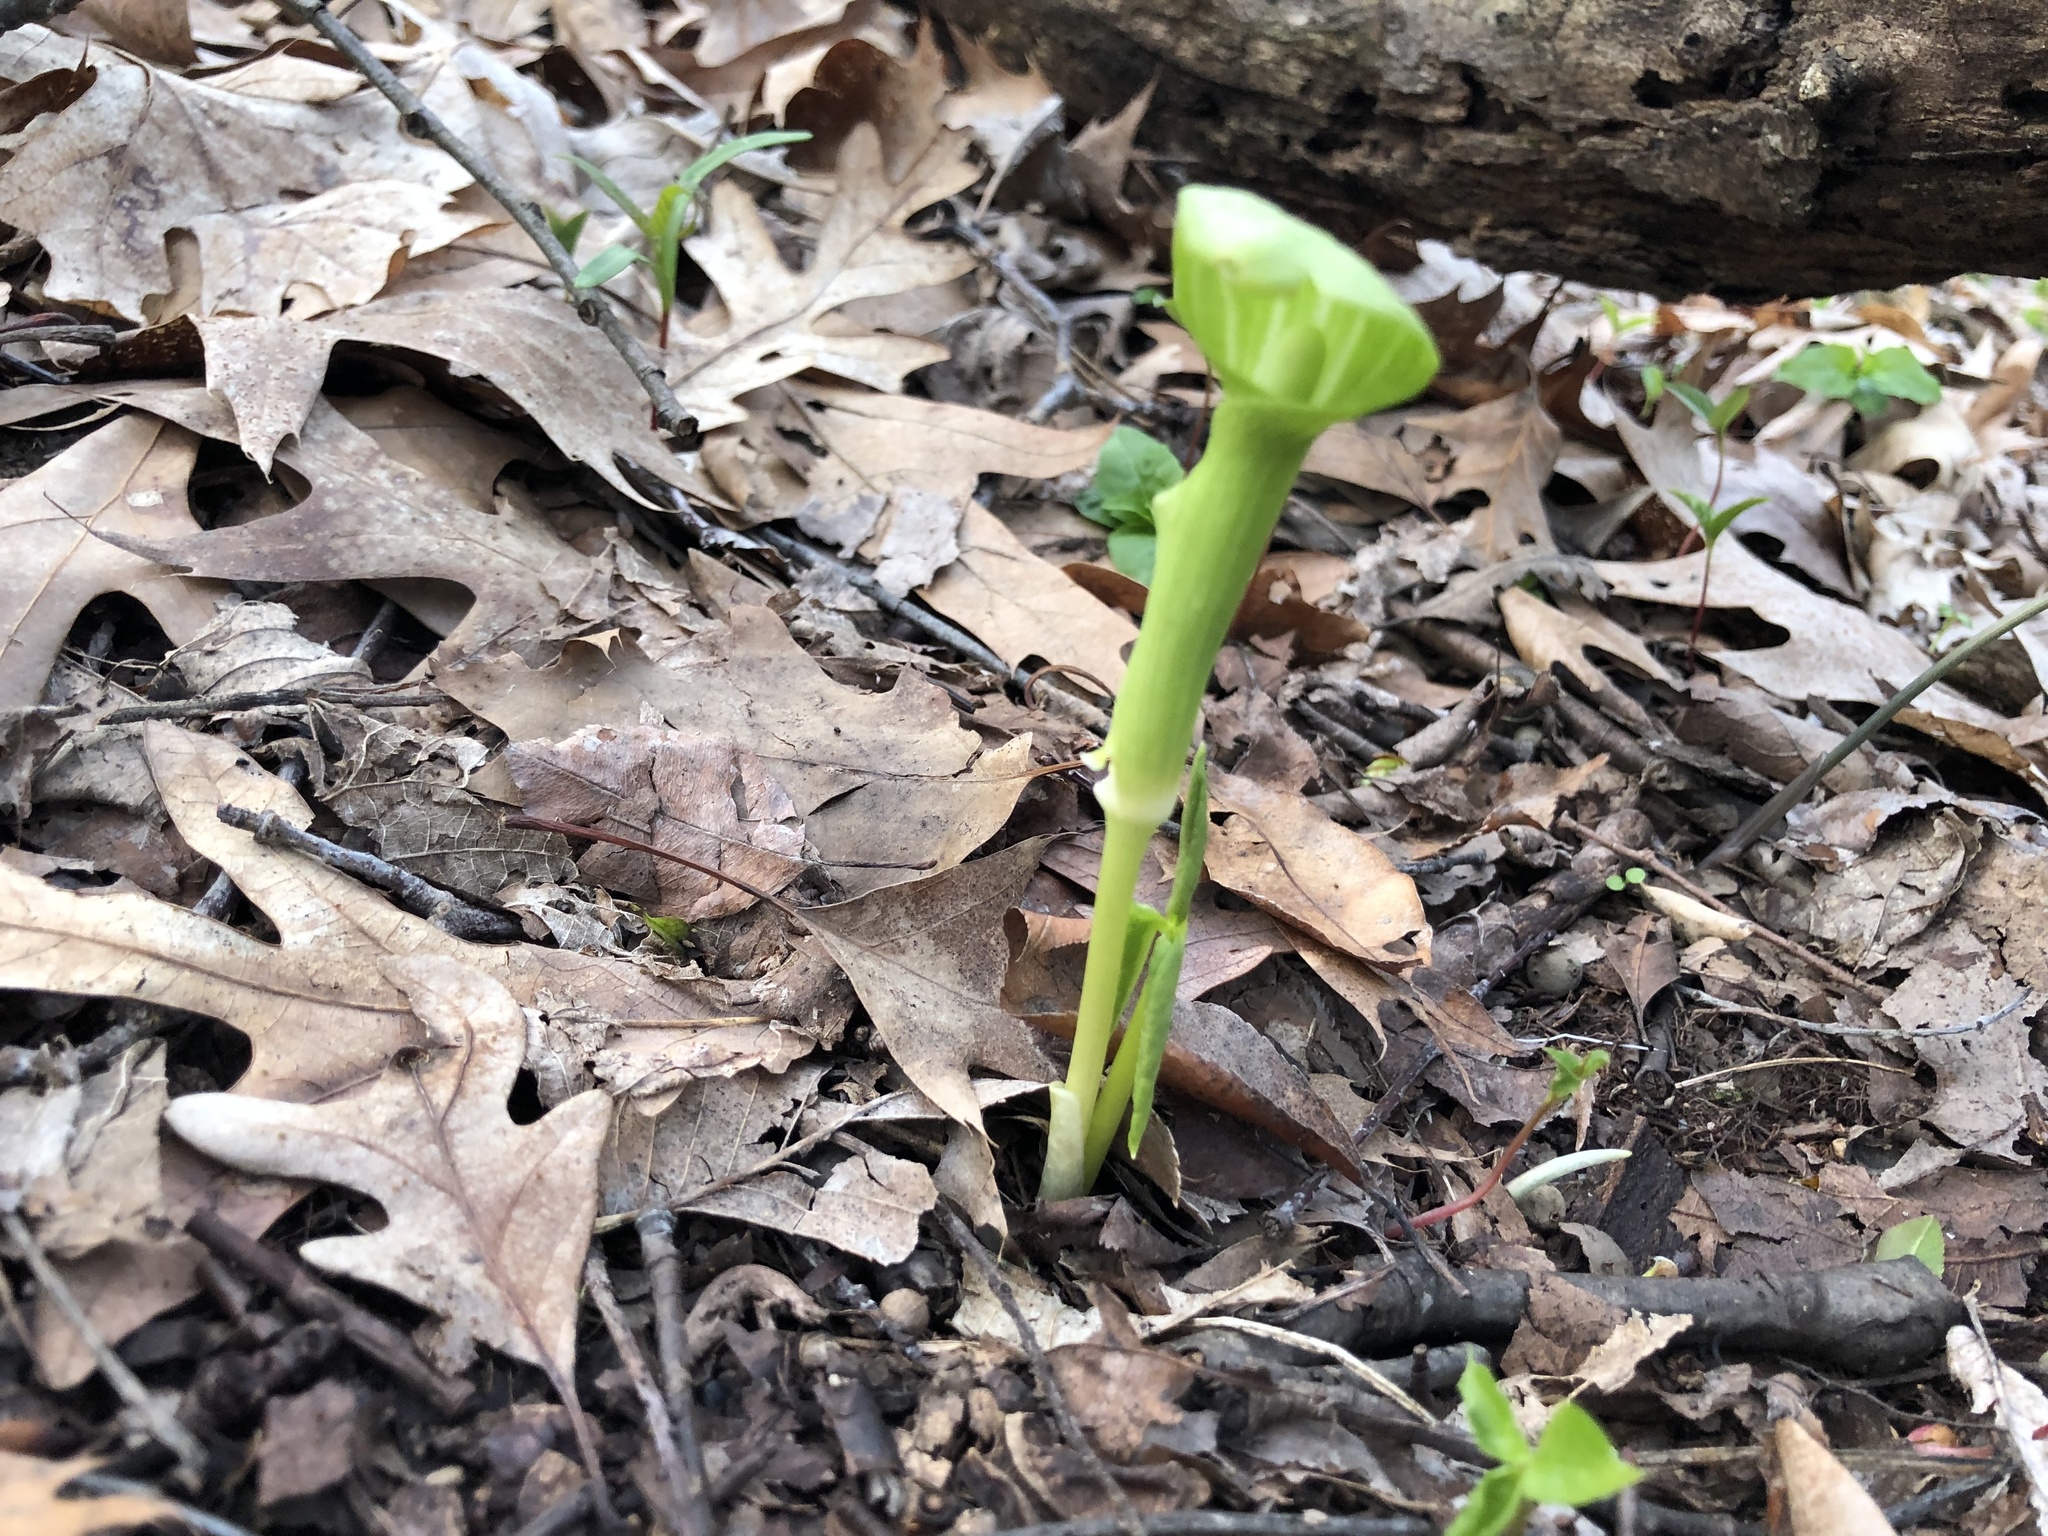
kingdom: Plantae
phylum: Tracheophyta
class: Liliopsida
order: Alismatales
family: Araceae
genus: Arisaema
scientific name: Arisaema triphyllum
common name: Jack-in-the-pulpit
